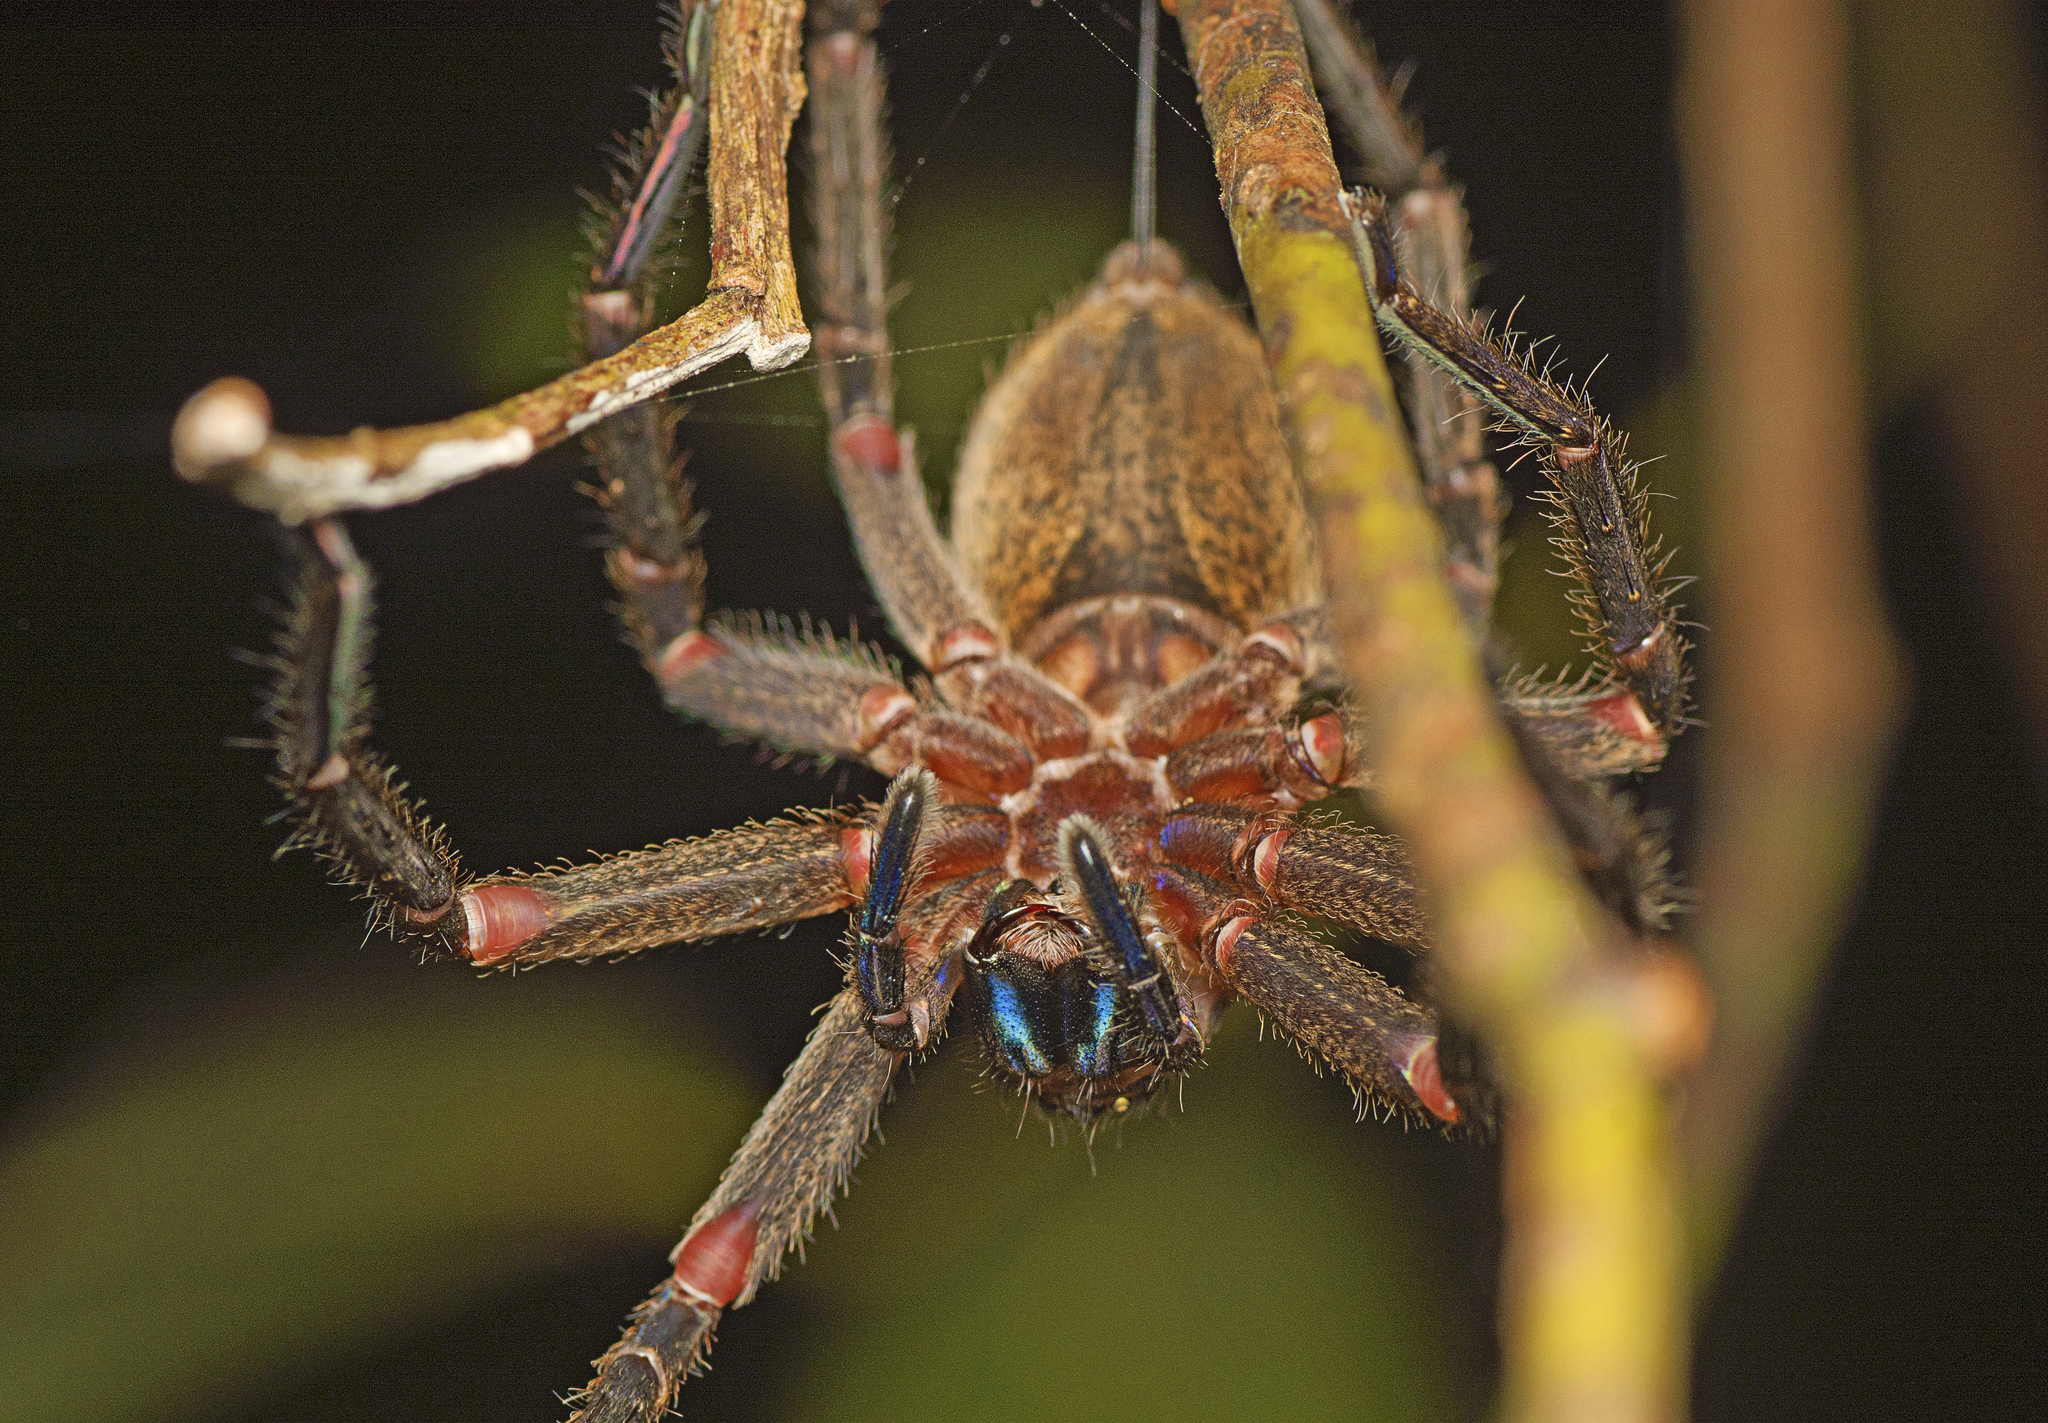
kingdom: Animalia
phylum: Arthropoda
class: Arachnida
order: Araneae
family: Sparassidae
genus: Heteropoda
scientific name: Heteropoda hillerae
